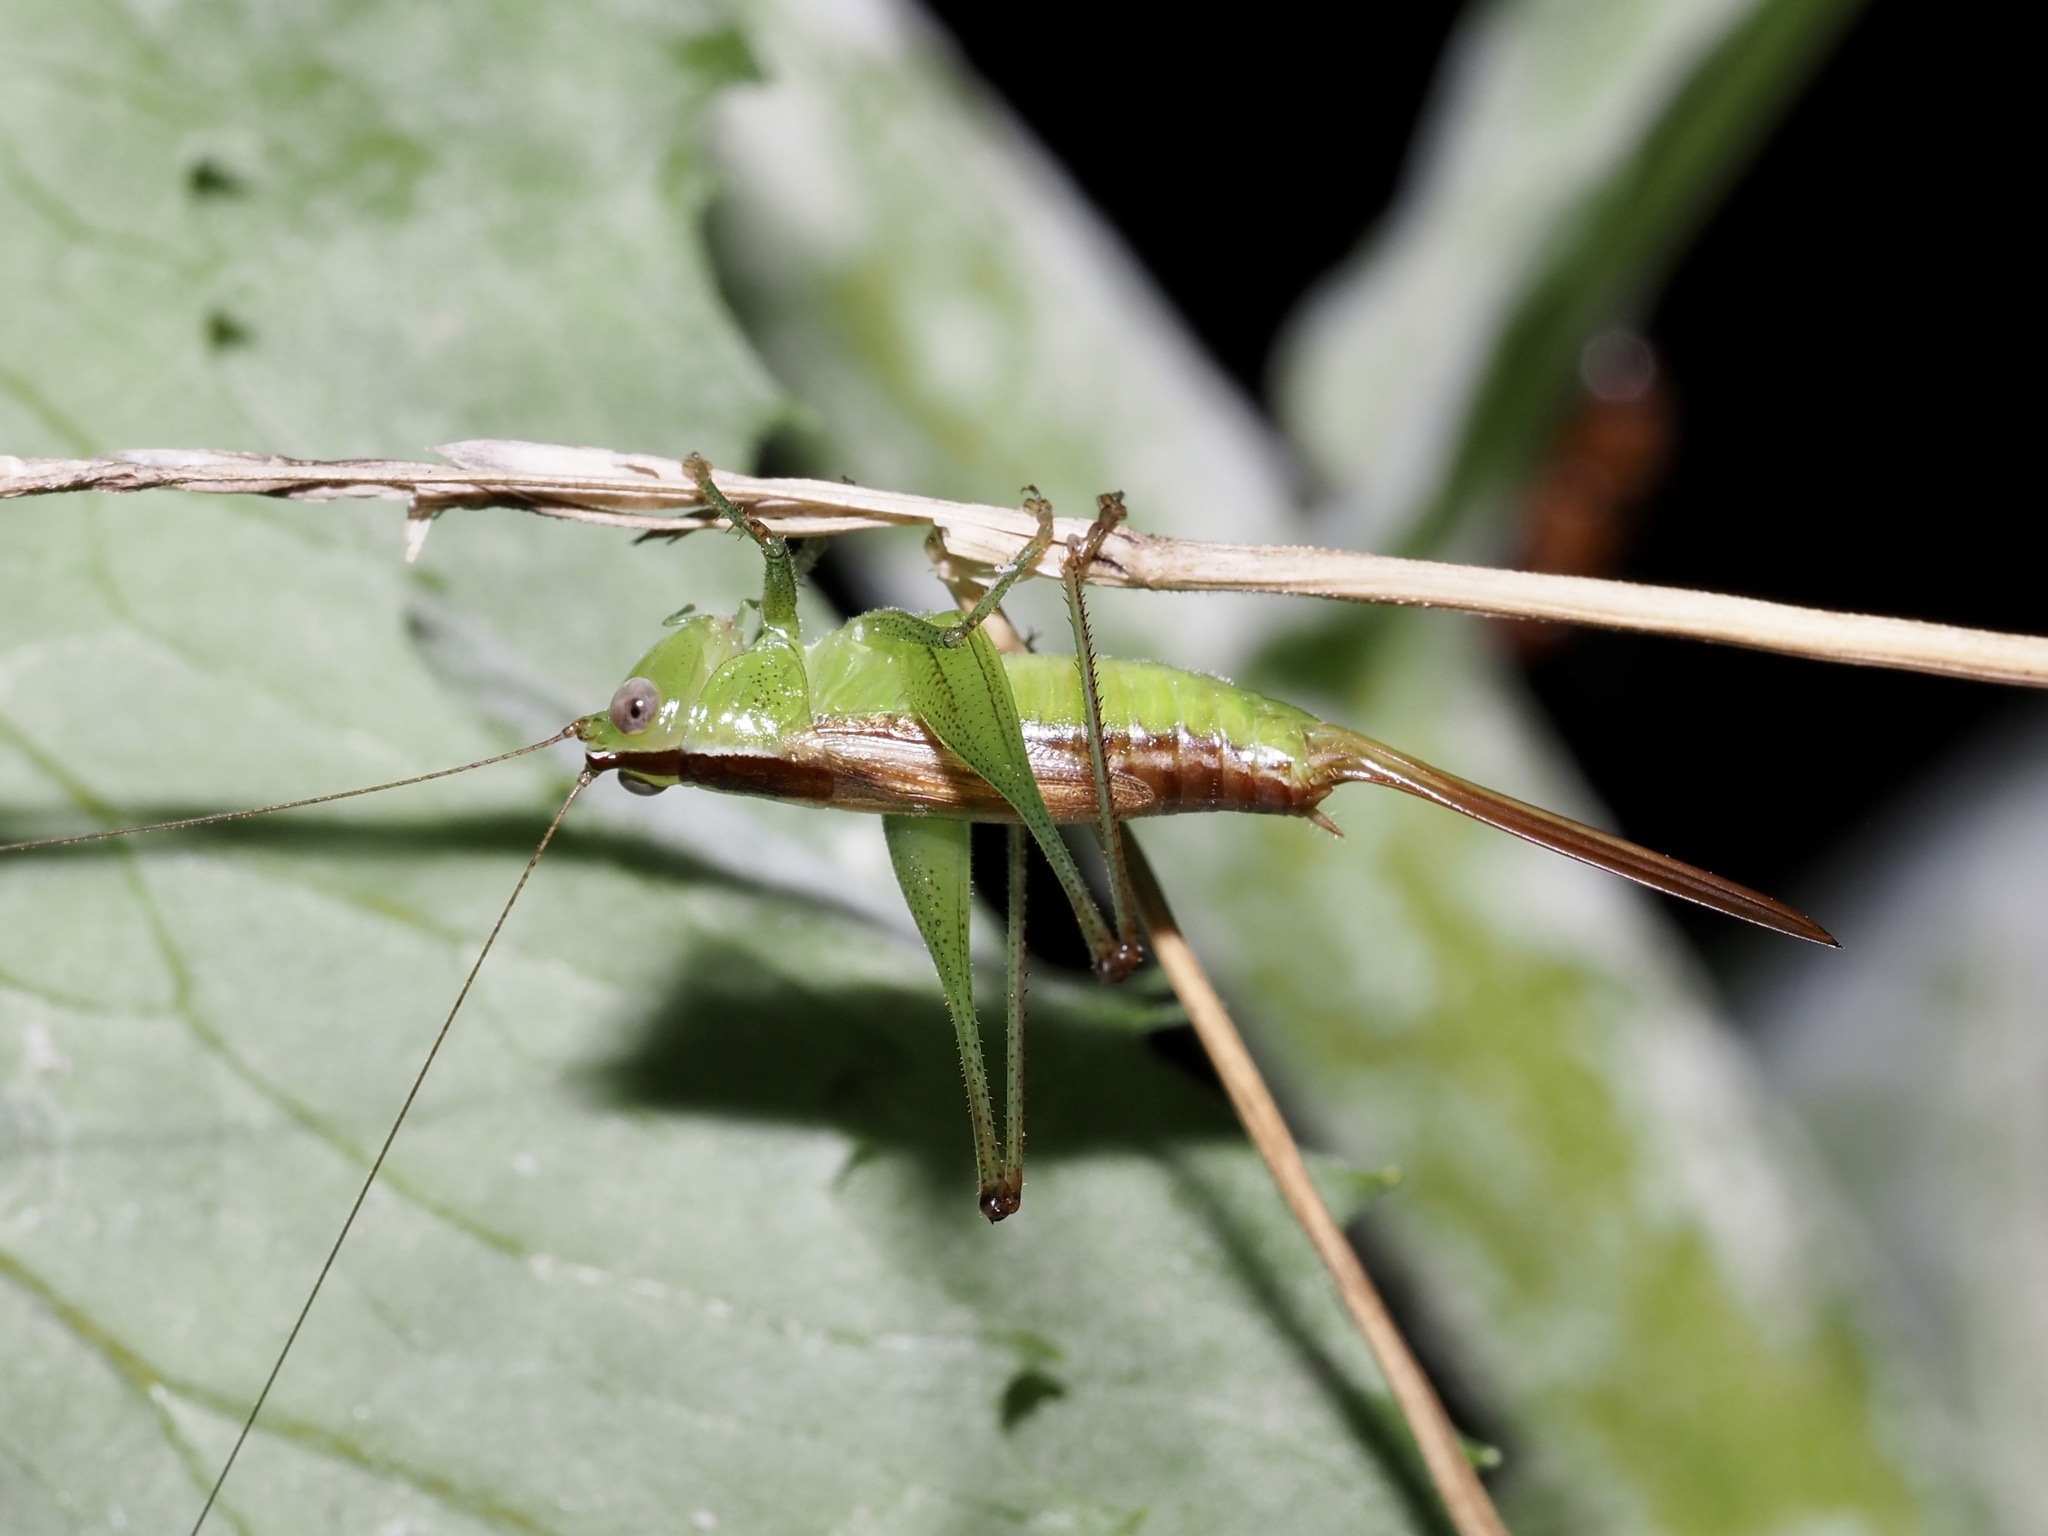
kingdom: Animalia
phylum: Arthropoda
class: Insecta
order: Orthoptera
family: Tettigoniidae
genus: Conocephalus
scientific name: Conocephalus brevipennis
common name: Short-winged meadow katydid
